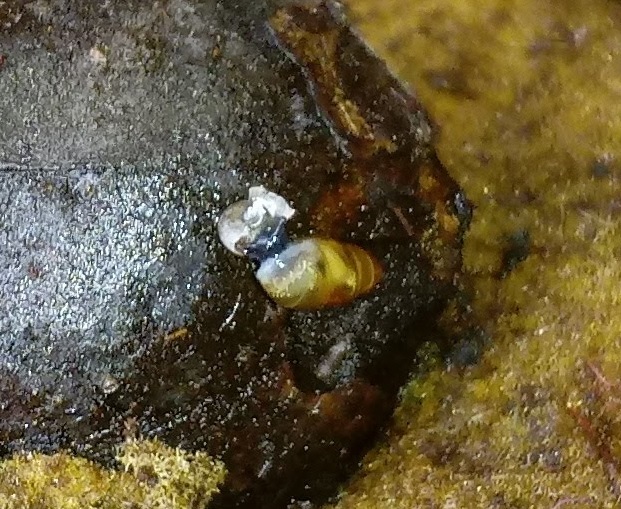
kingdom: Animalia
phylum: Mollusca
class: Gastropoda
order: Stylommatophora
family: Cochlicopidae
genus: Cochlicopa
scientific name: Cochlicopa lubrica
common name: Glossy pillar snail
